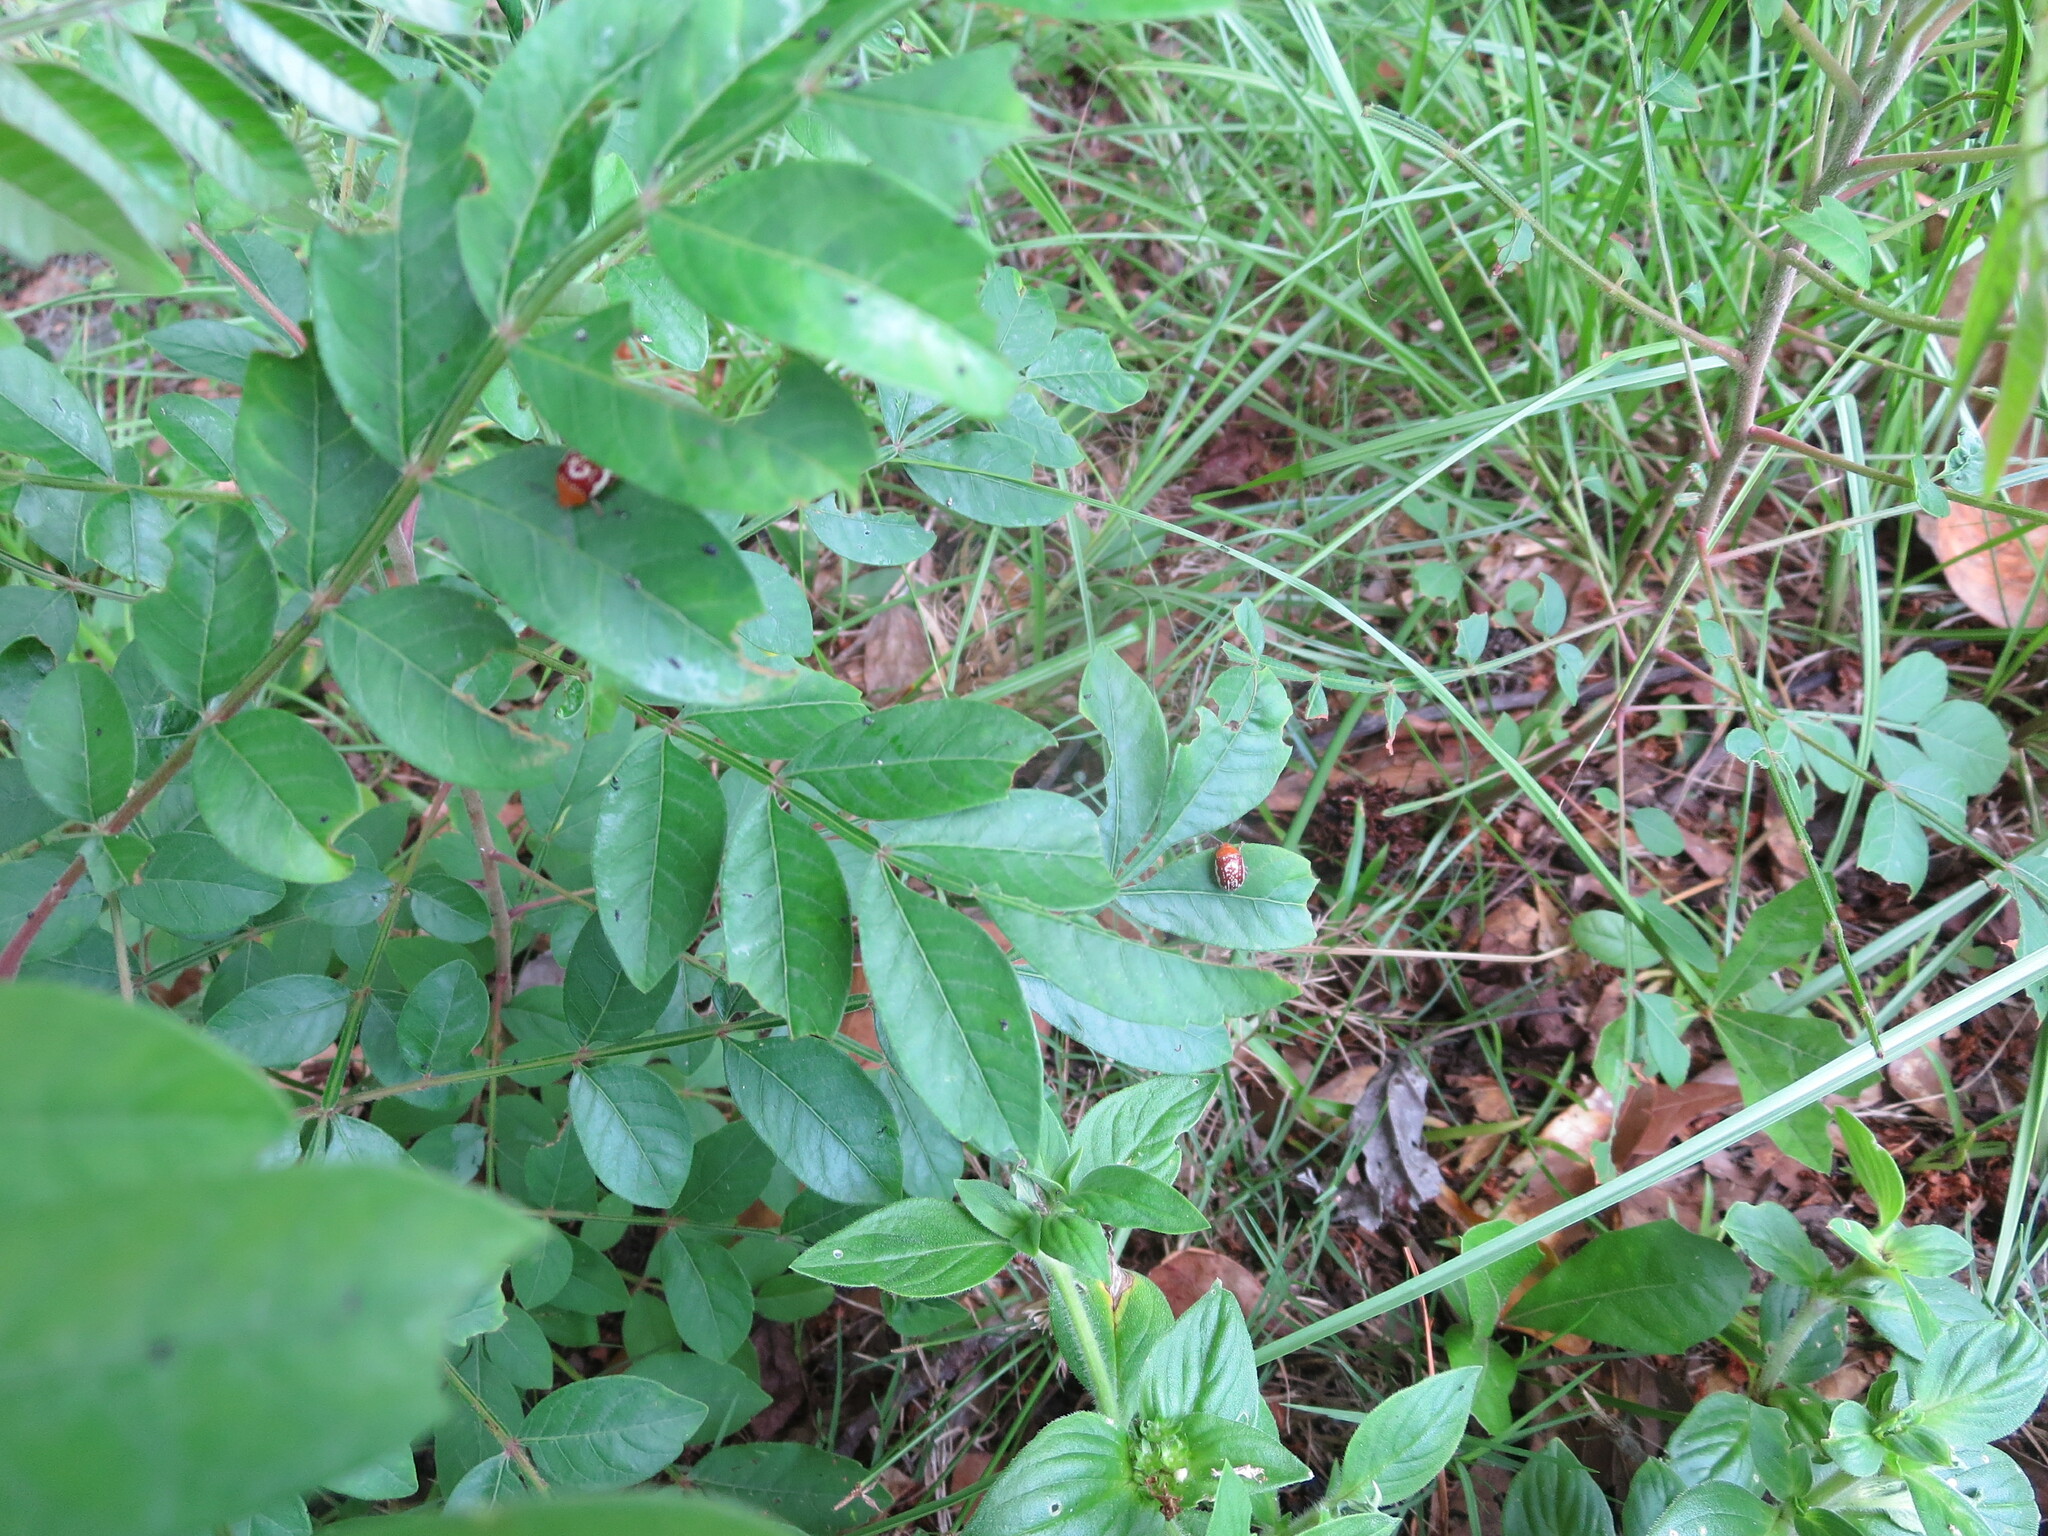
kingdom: Animalia
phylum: Arthropoda
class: Insecta
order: Coleoptera
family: Chrysomelidae
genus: Blepharida
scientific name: Blepharida rhois
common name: Sumac flea beetle
